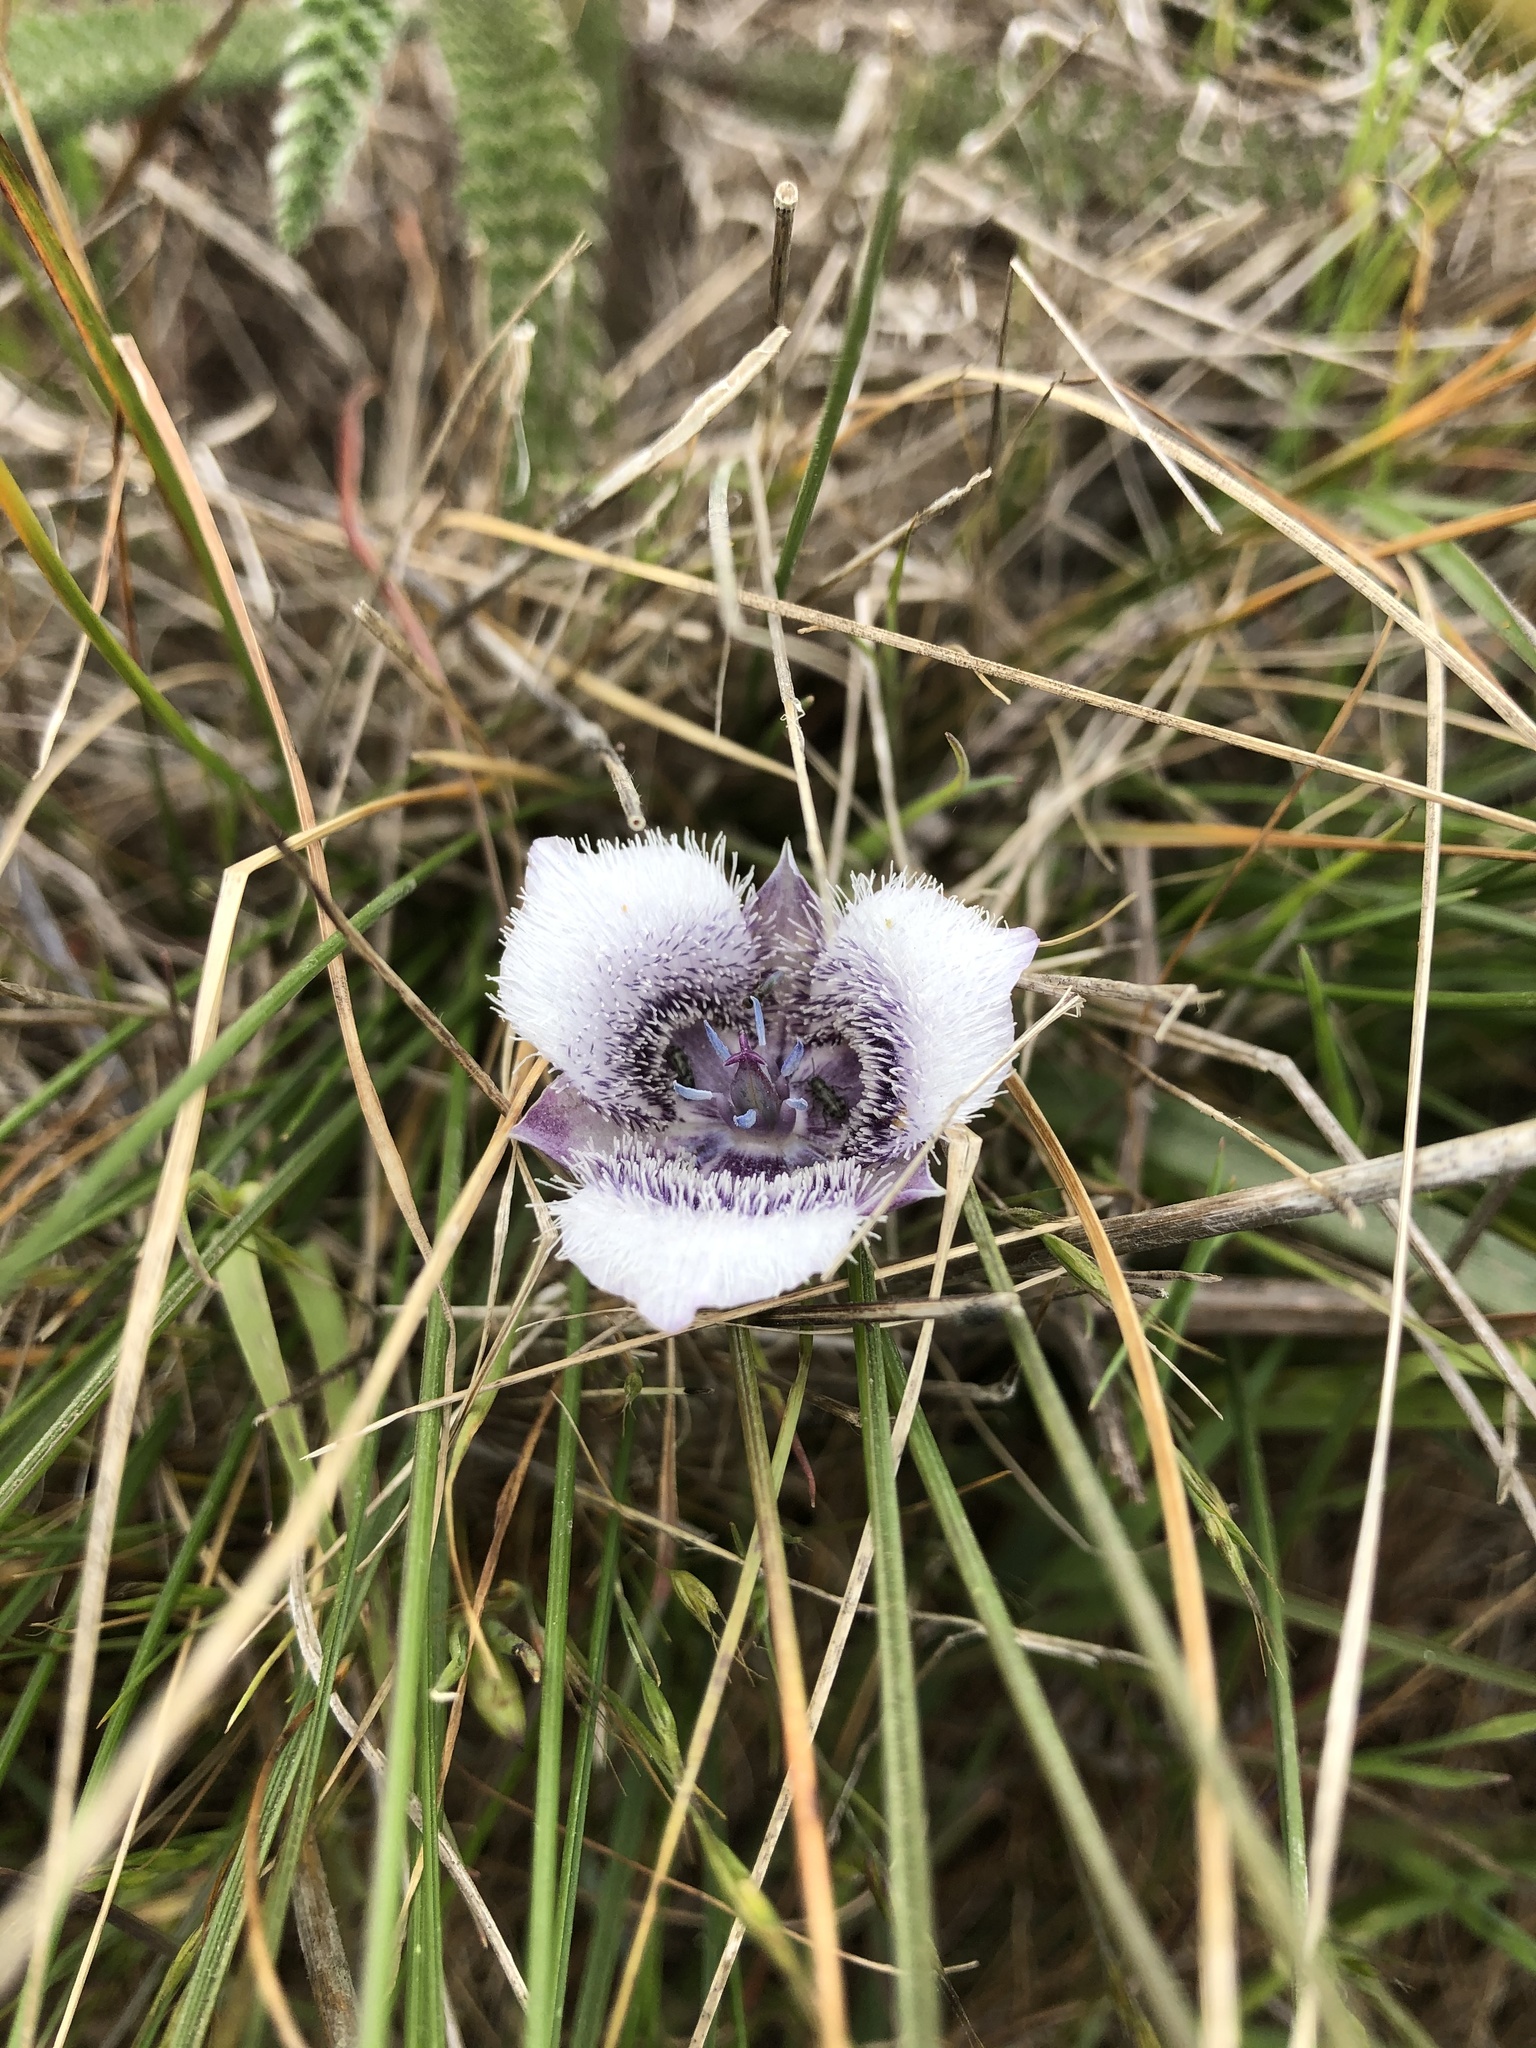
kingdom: Plantae
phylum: Tracheophyta
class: Liliopsida
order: Liliales
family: Liliaceae
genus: Calochortus
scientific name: Calochortus tolmiei
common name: Pussy-ears
